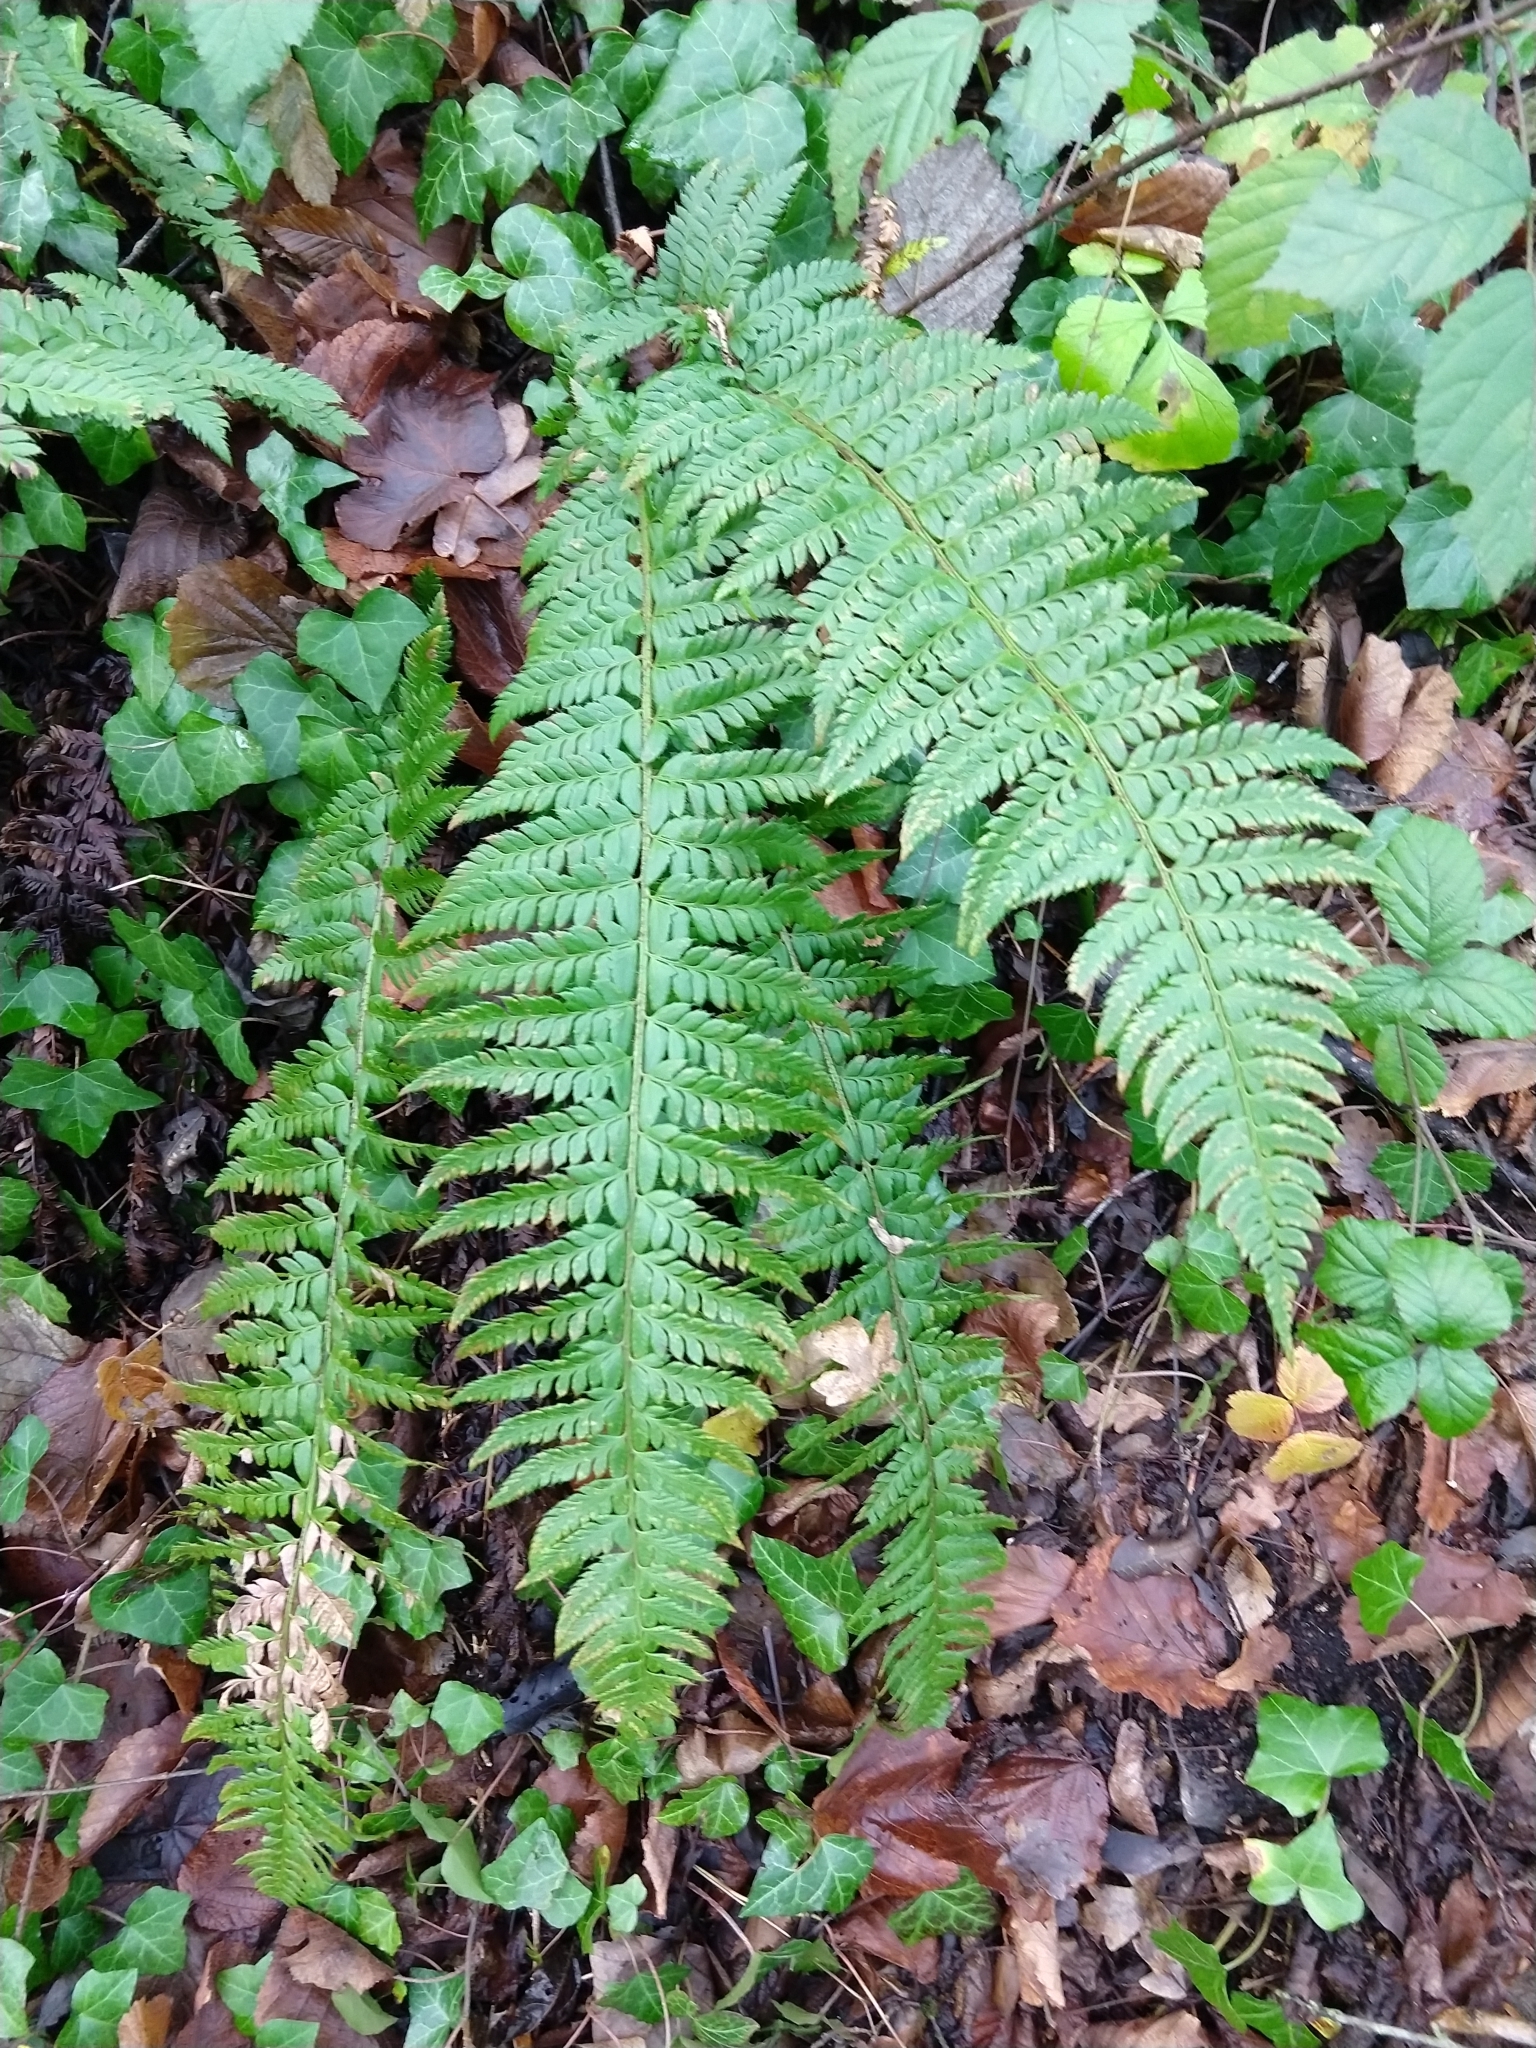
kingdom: Plantae
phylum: Tracheophyta
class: Polypodiopsida
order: Polypodiales
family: Dryopteridaceae
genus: Polystichum
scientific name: Polystichum aculeatum
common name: Hard shield-fern
